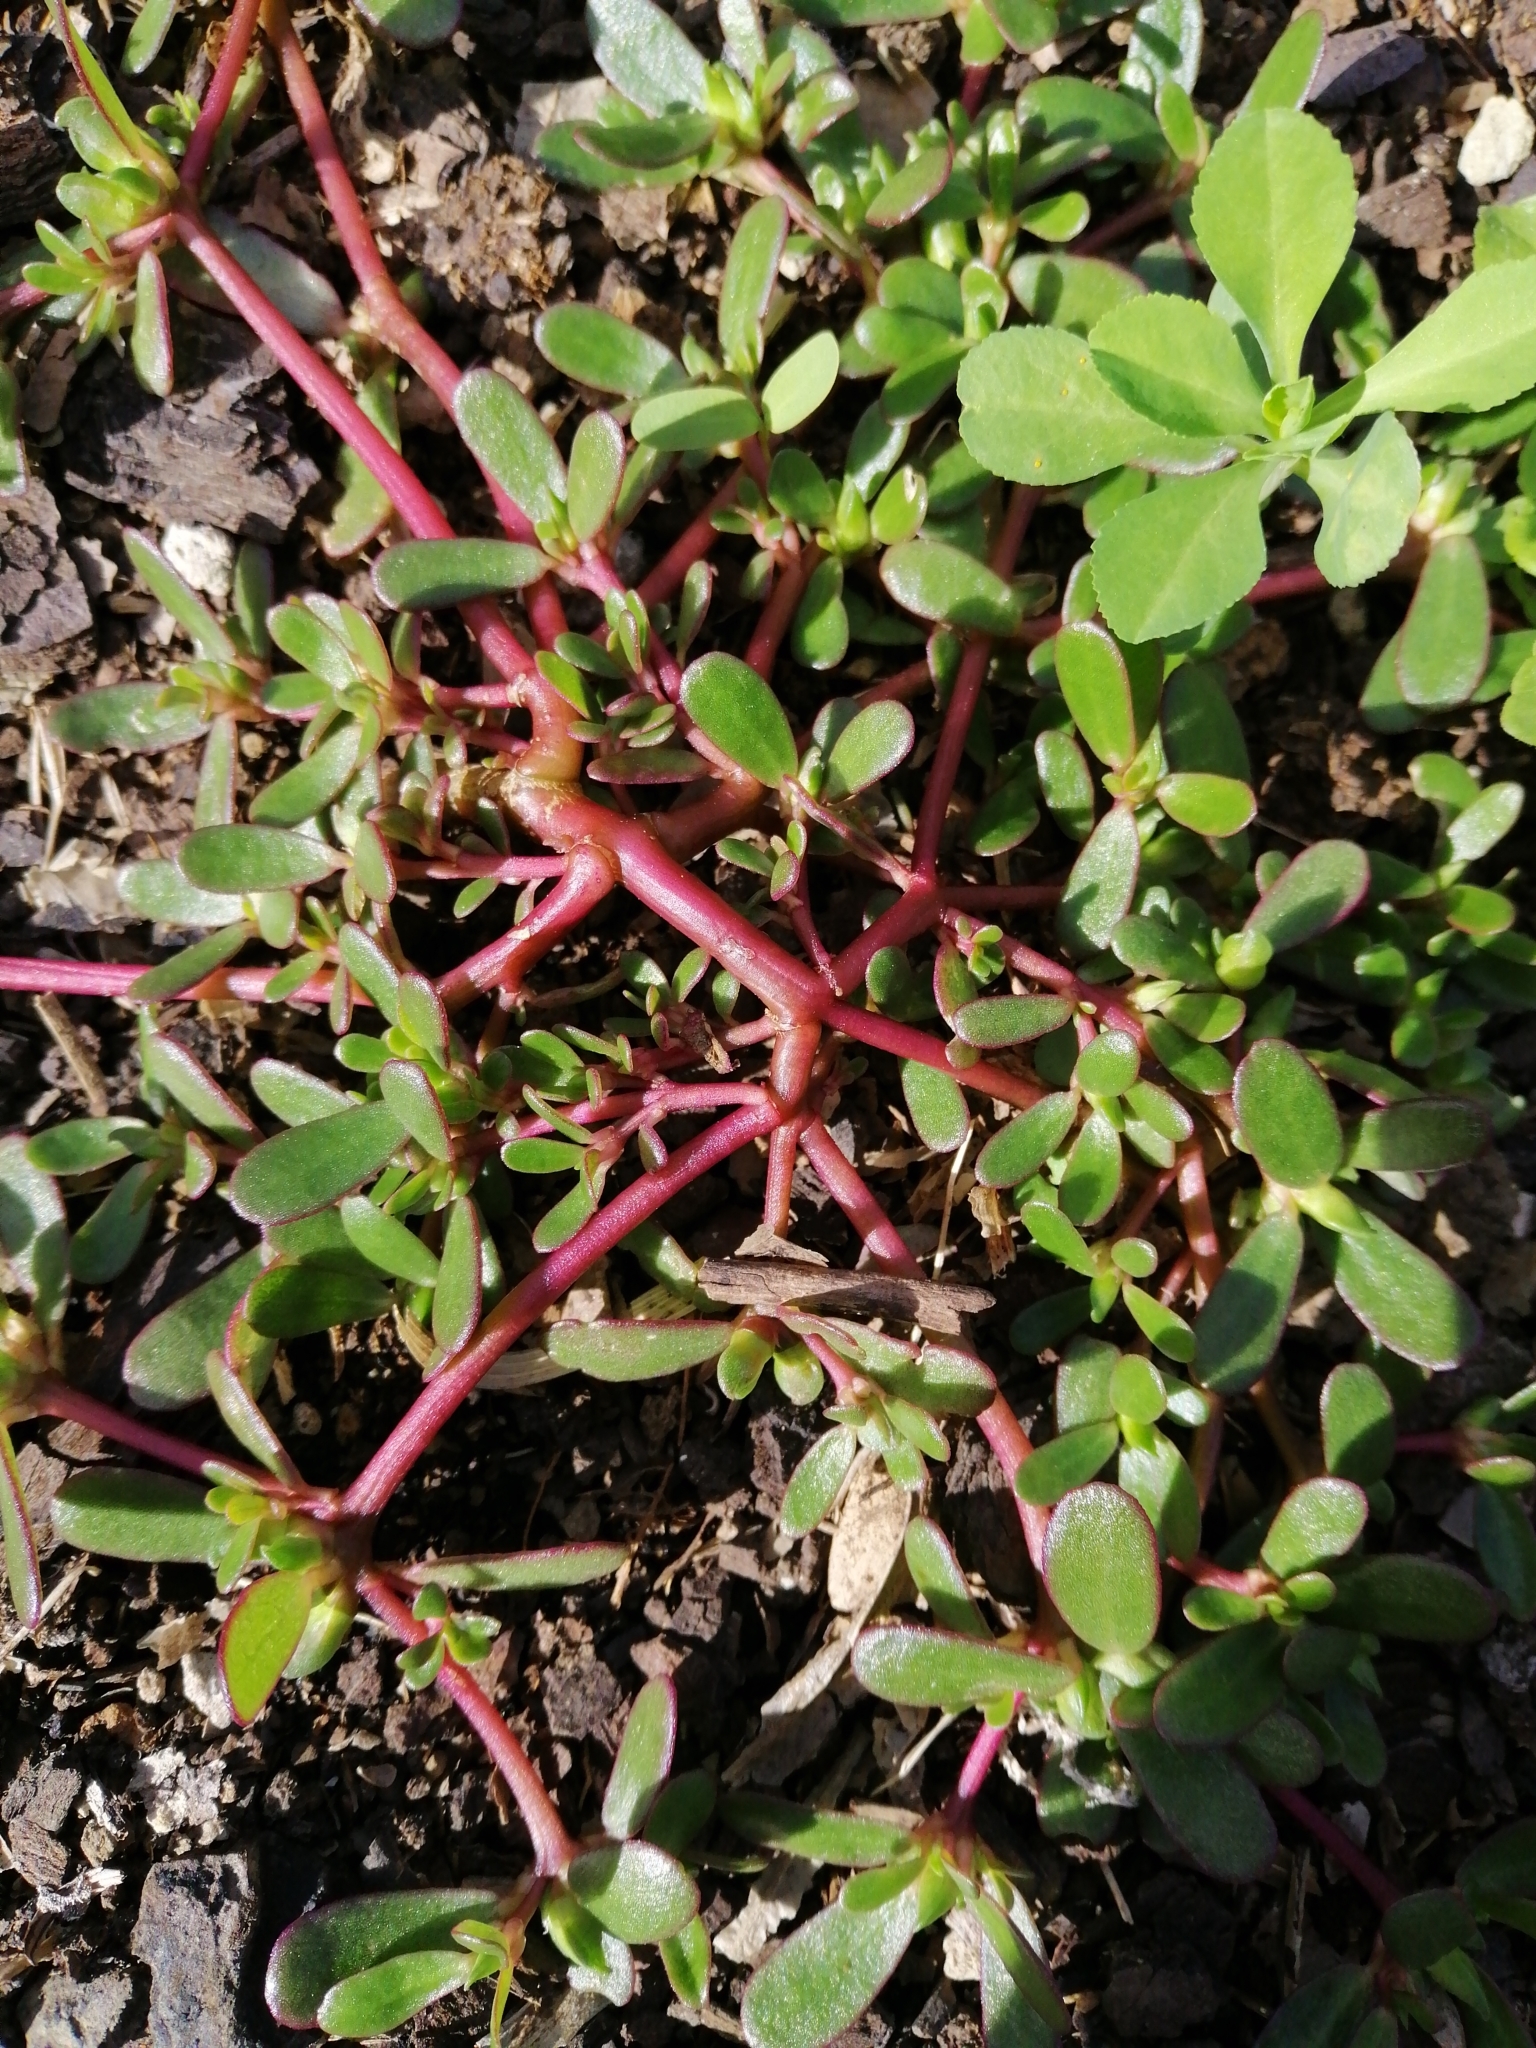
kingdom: Plantae
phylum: Tracheophyta
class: Magnoliopsida
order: Caryophyllales
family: Portulacaceae
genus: Portulaca
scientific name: Portulaca oleracea
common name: Common purslane
